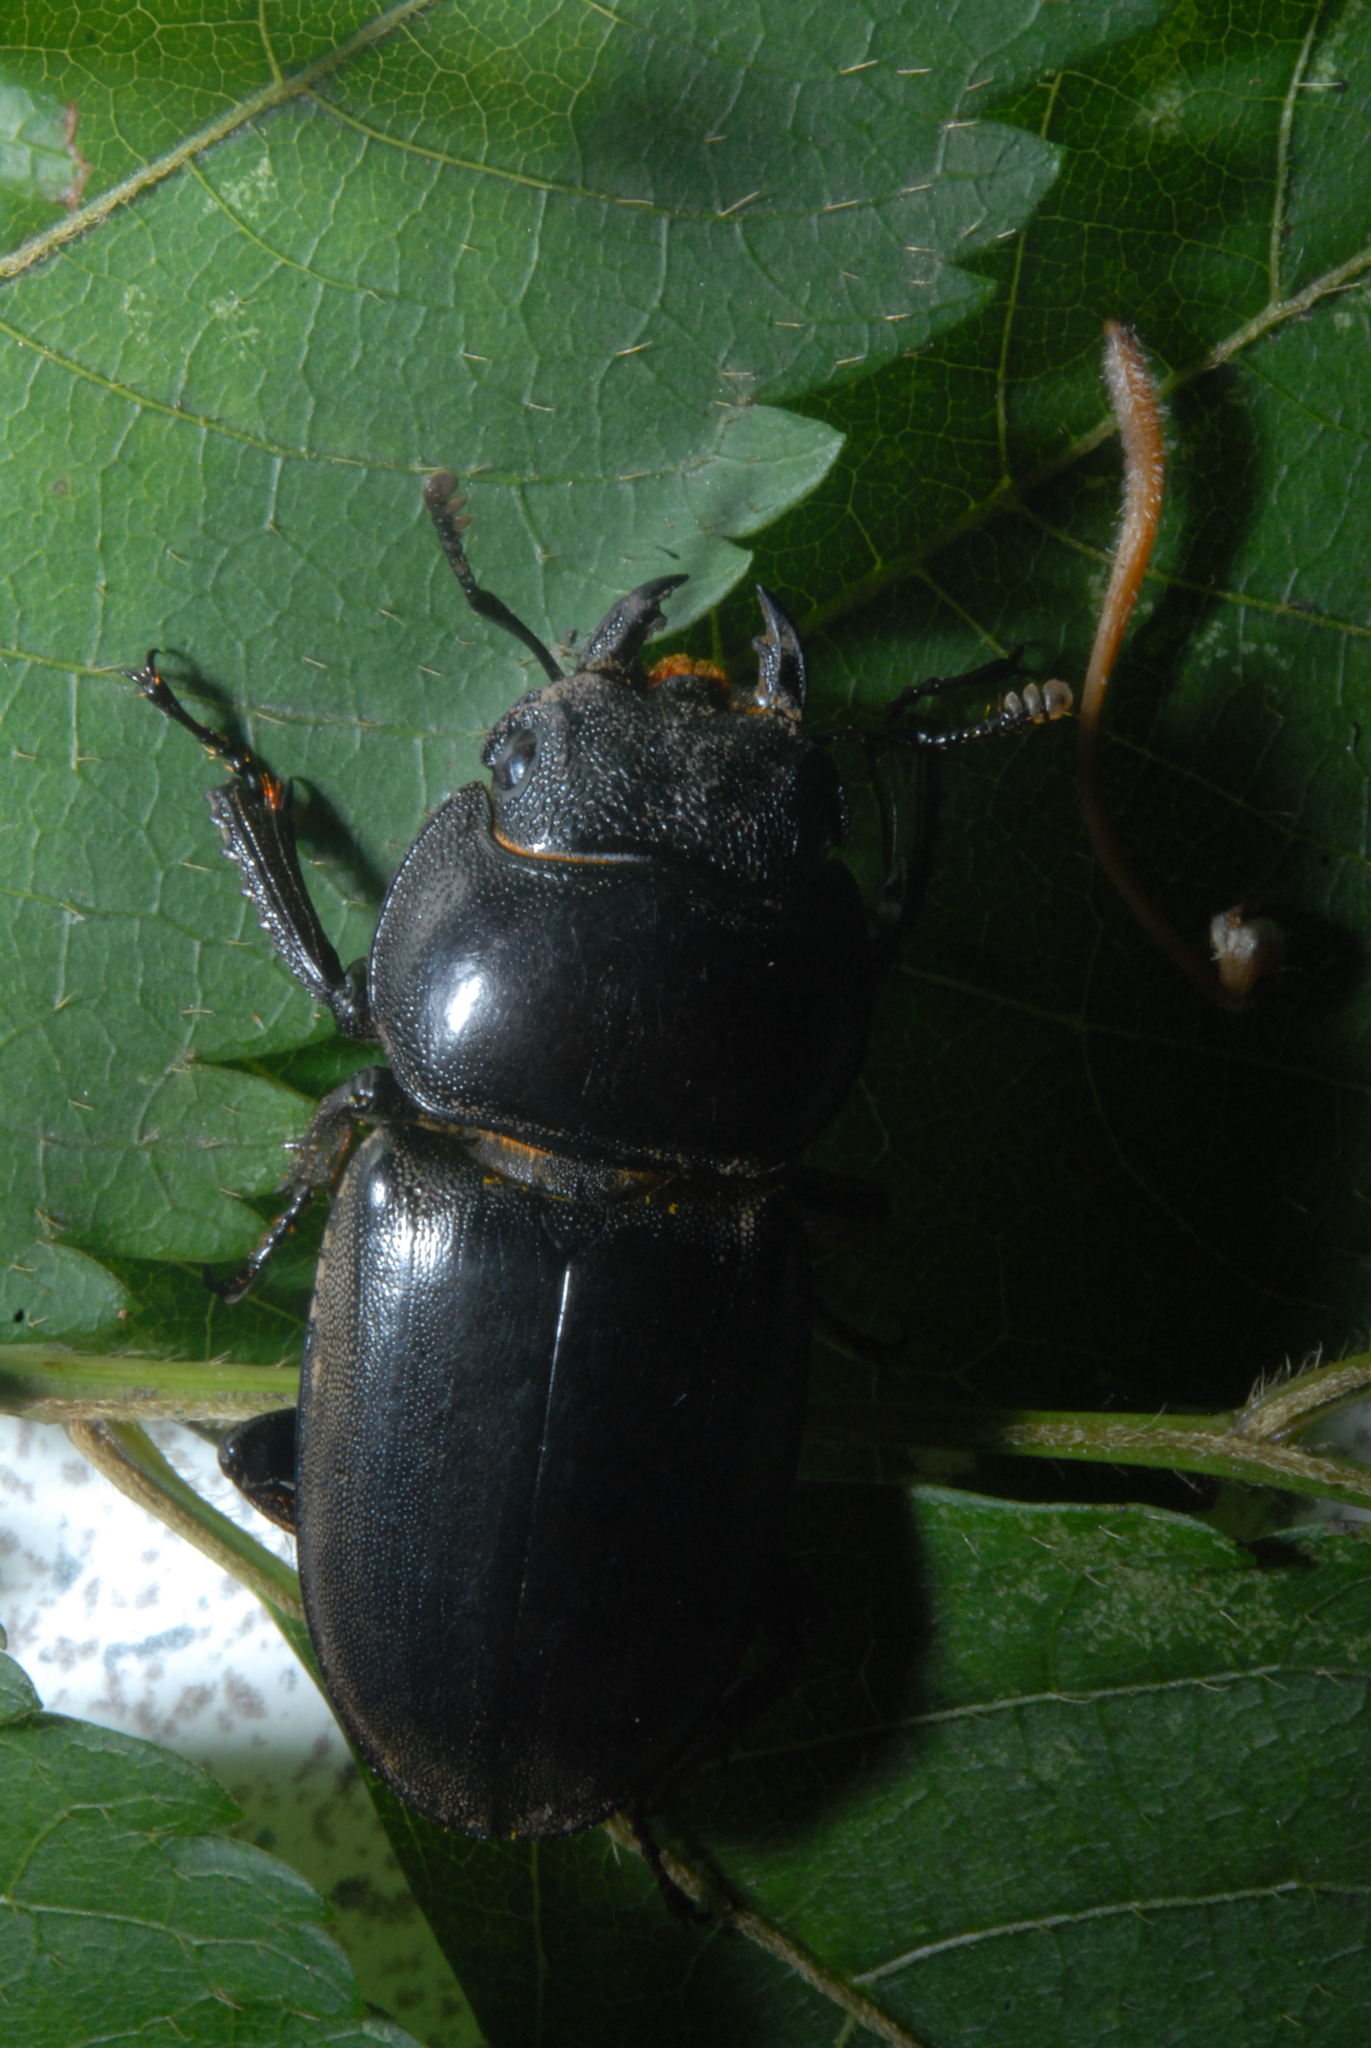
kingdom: Animalia
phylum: Arthropoda
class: Insecta
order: Coleoptera
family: Lucanidae
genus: Serrognathus
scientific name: Serrognathus titanus
